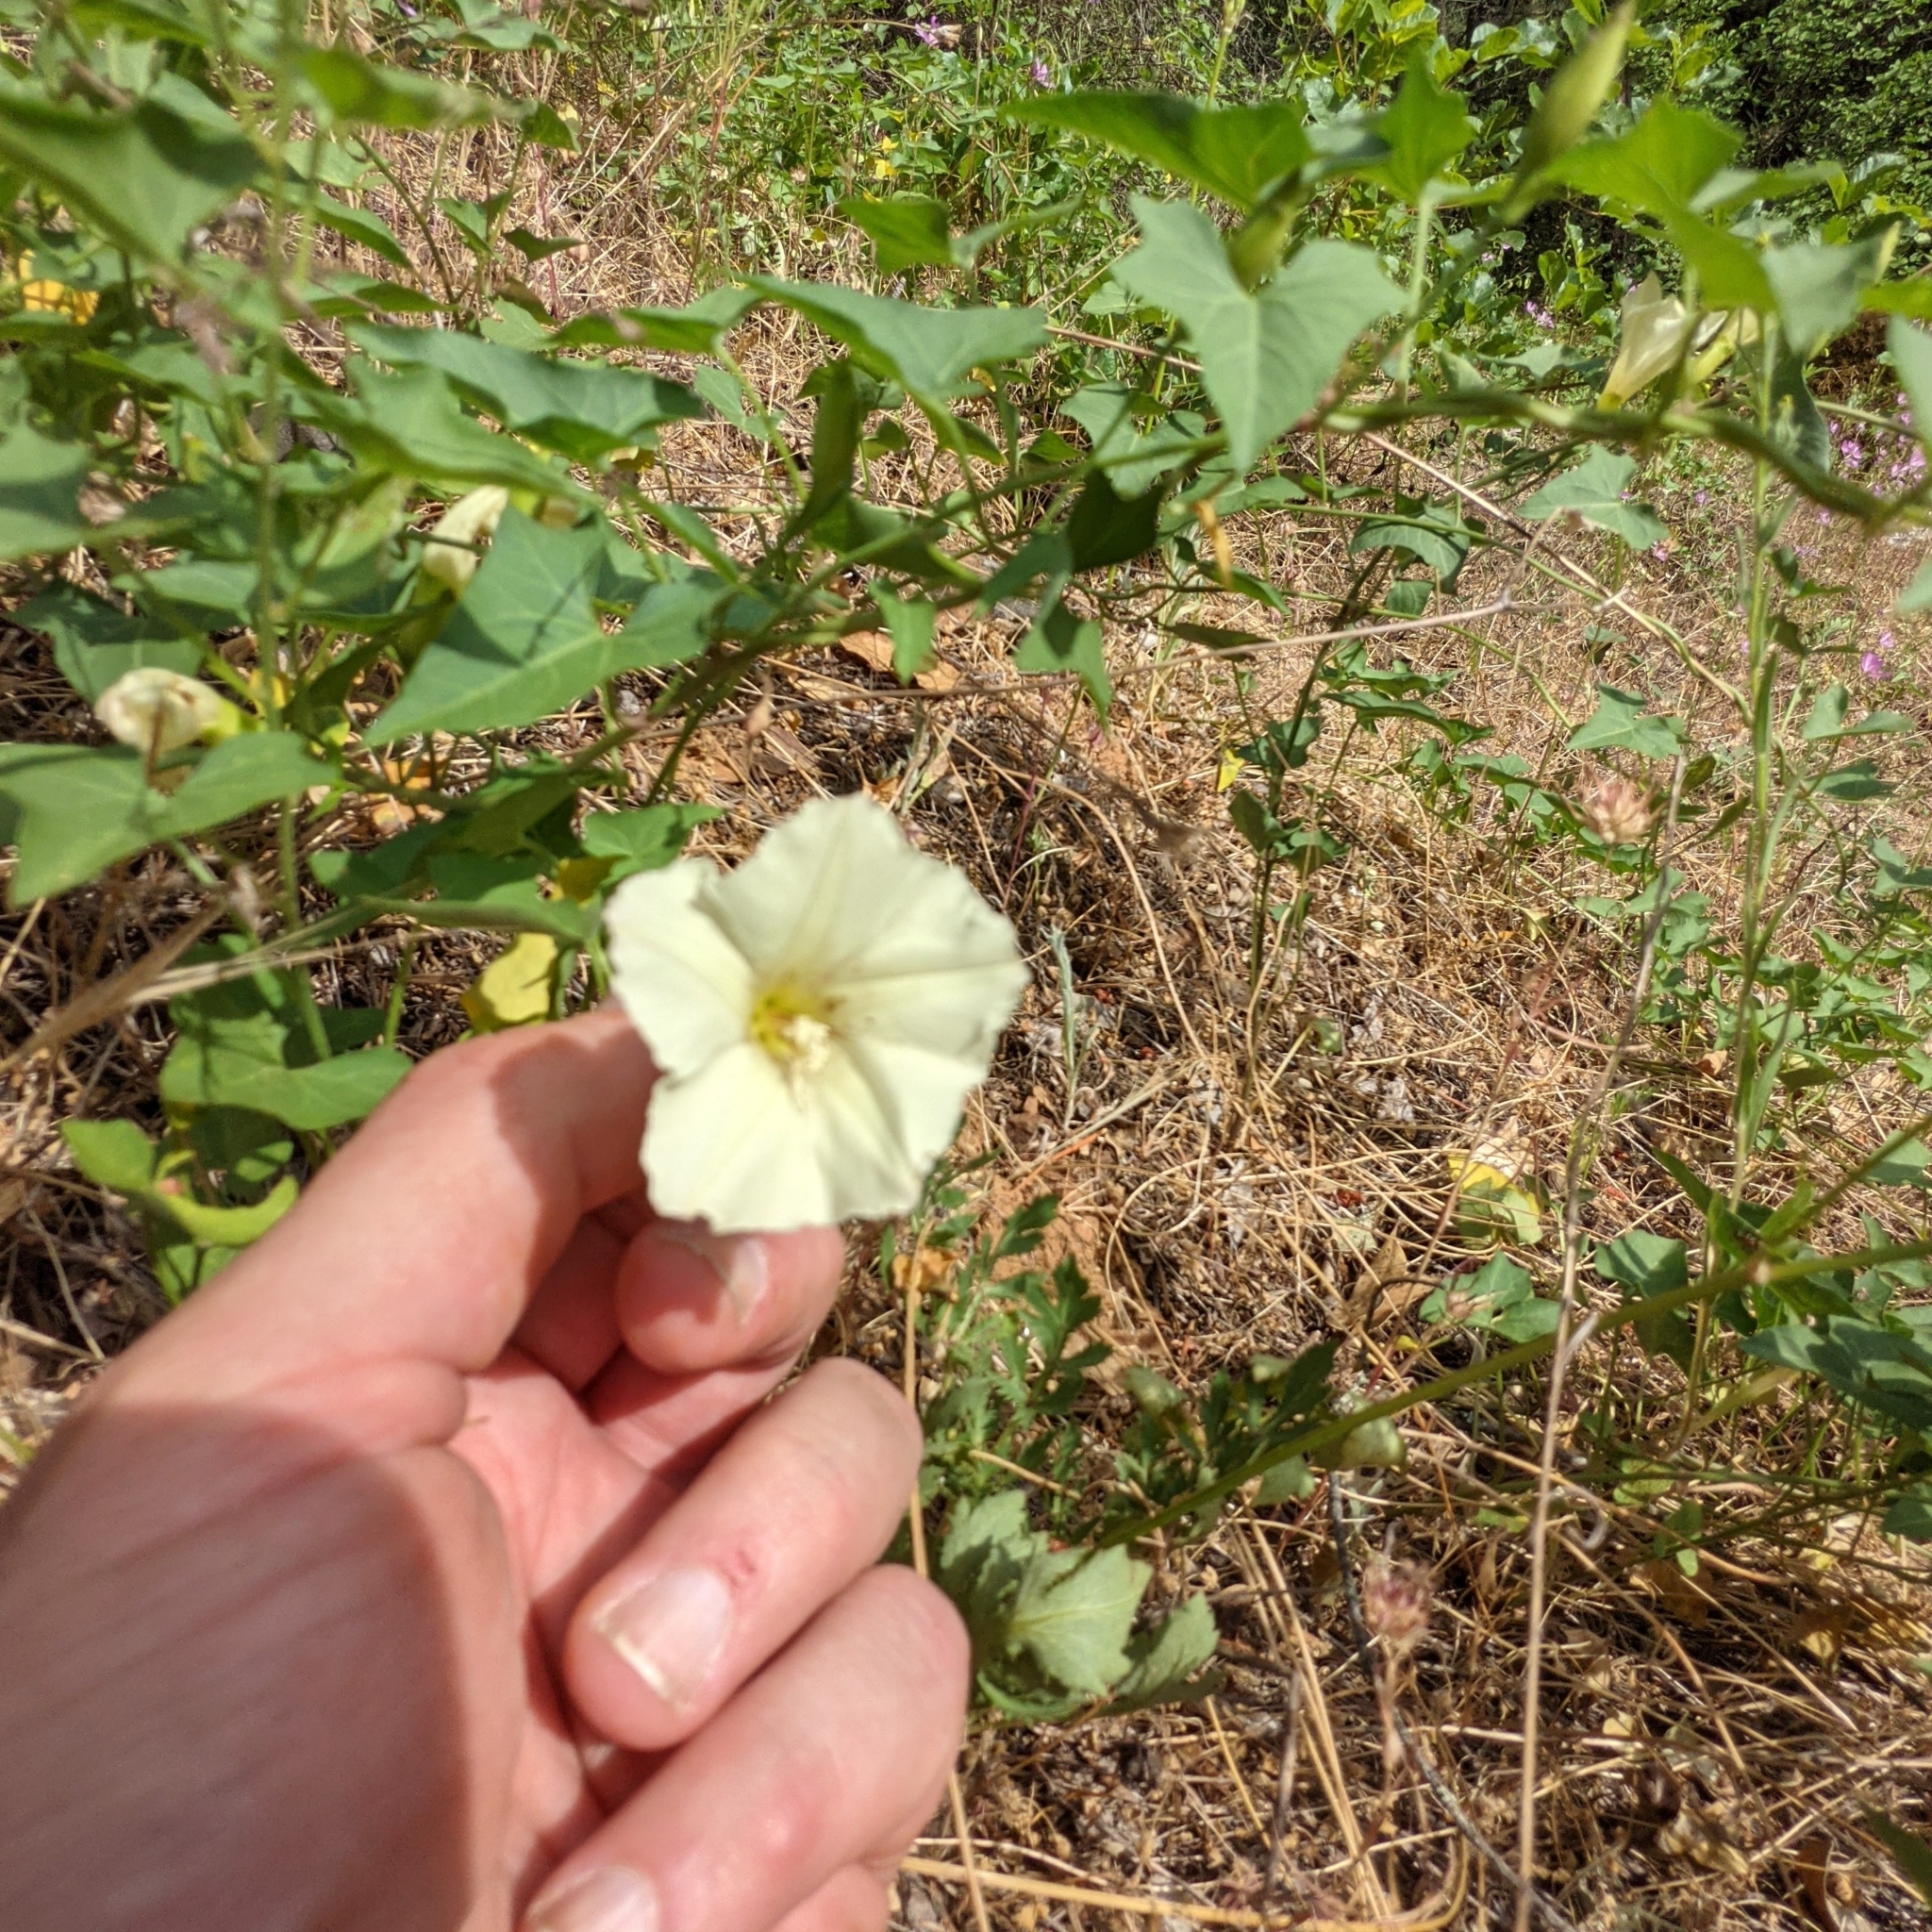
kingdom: Plantae
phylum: Tracheophyta
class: Magnoliopsida
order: Solanales
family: Convolvulaceae
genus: Calystegia
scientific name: Calystegia malacophylla
